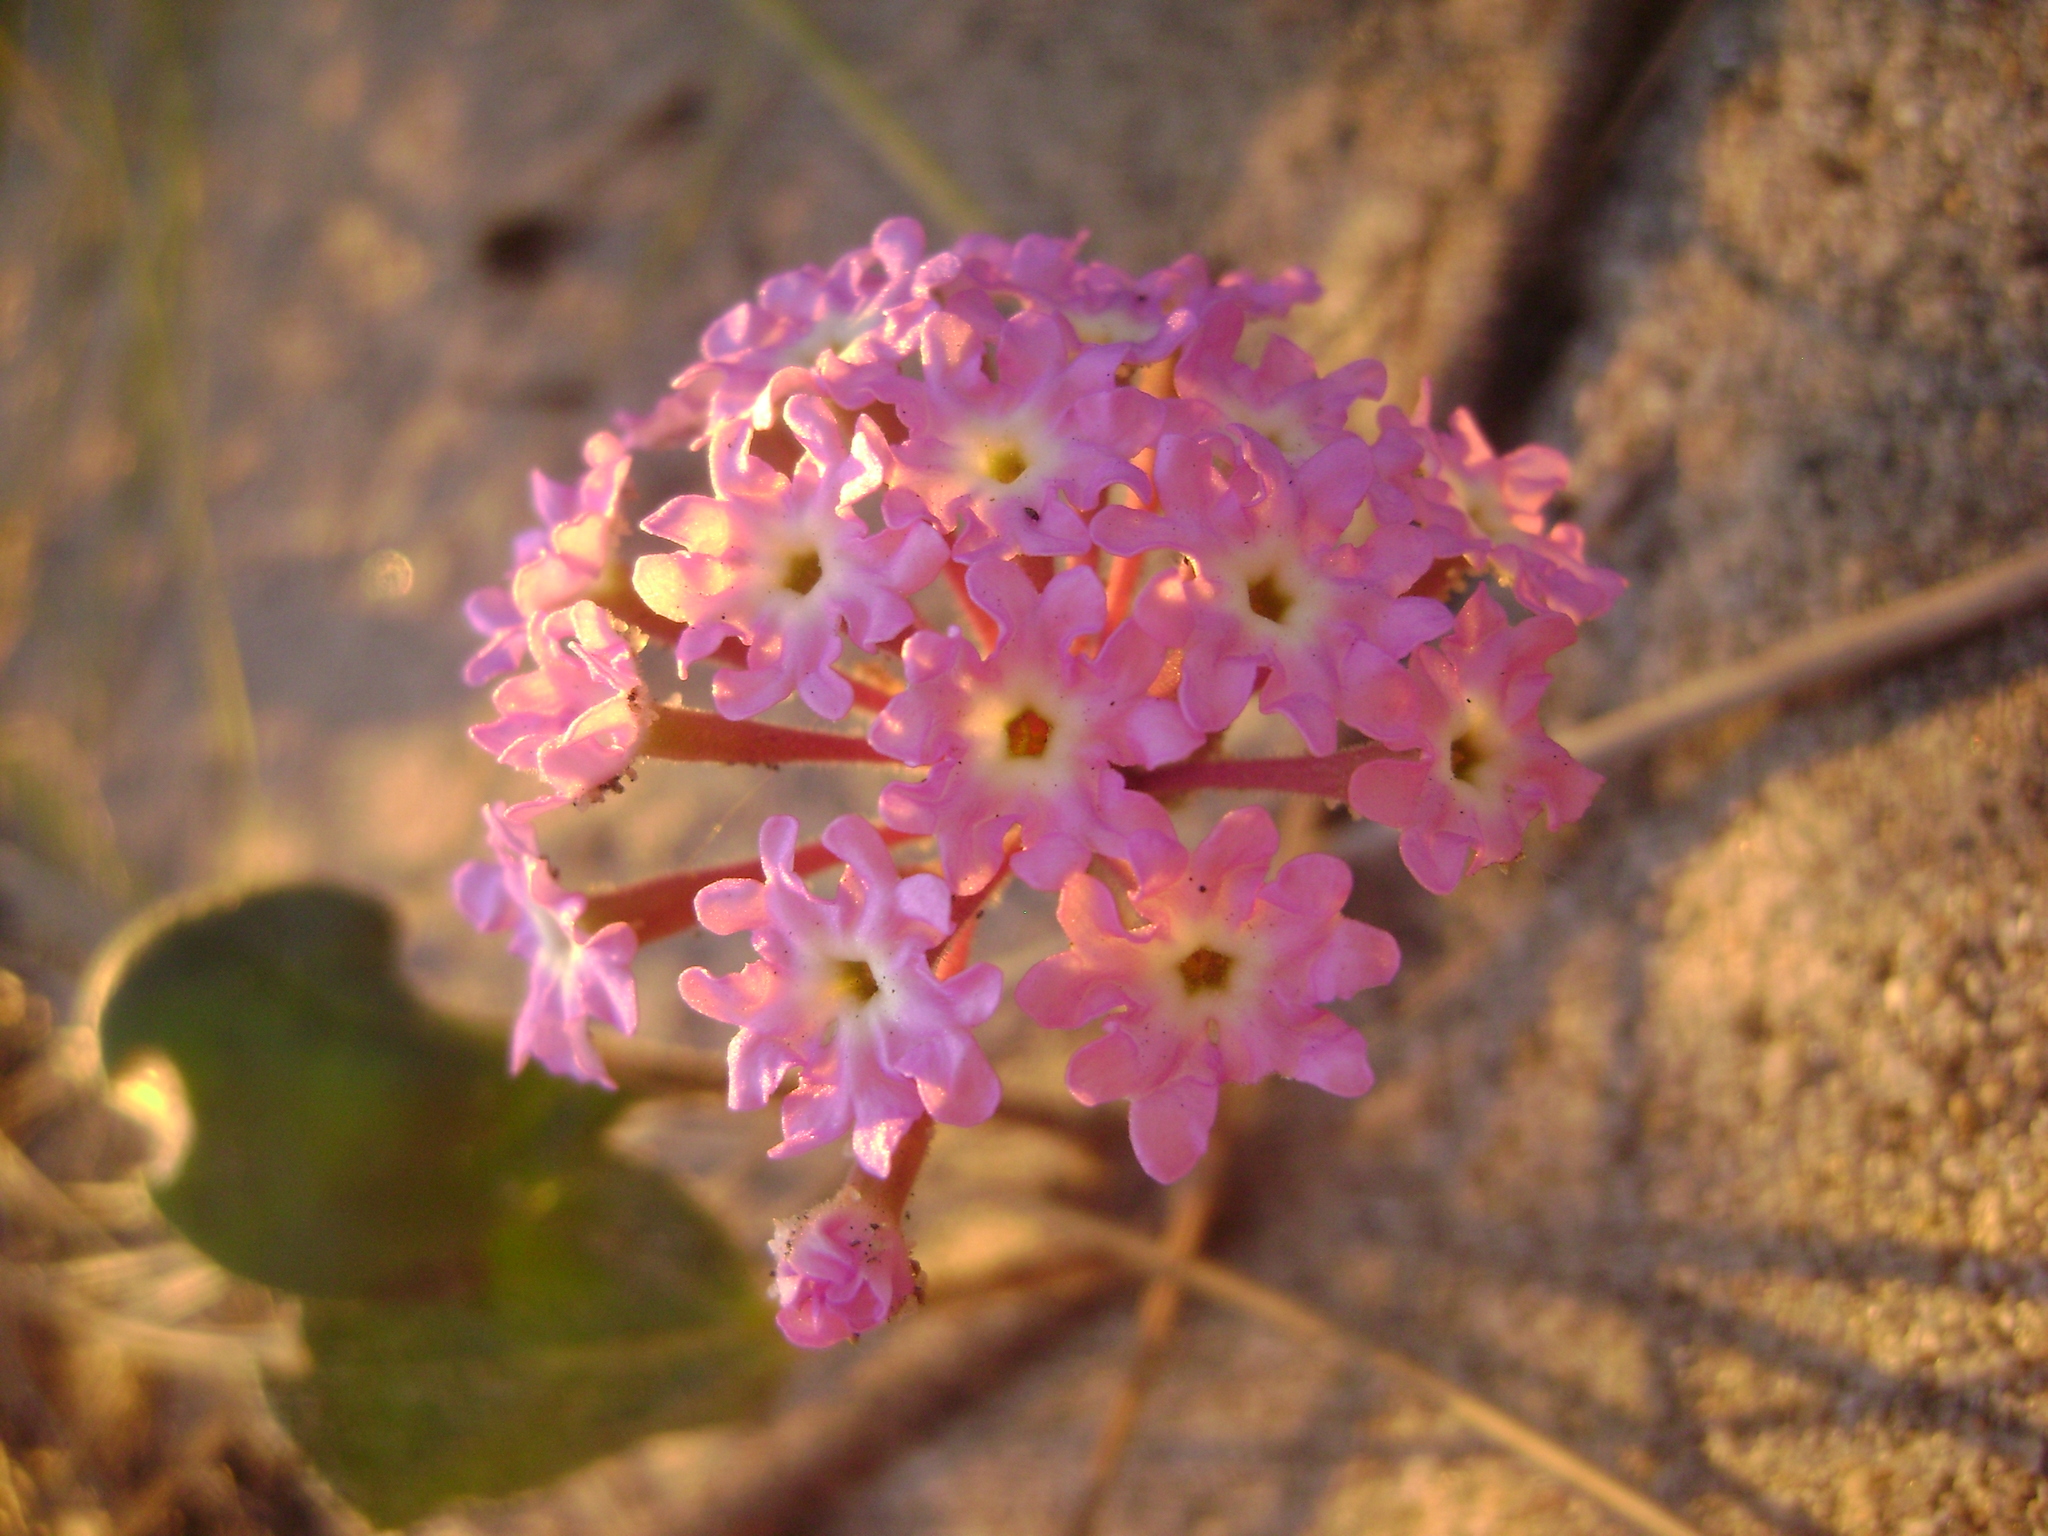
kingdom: Plantae
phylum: Tracheophyta
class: Magnoliopsida
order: Caryophyllales
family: Nyctaginaceae
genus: Abronia
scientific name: Abronia umbellata
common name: Sand-verbena
